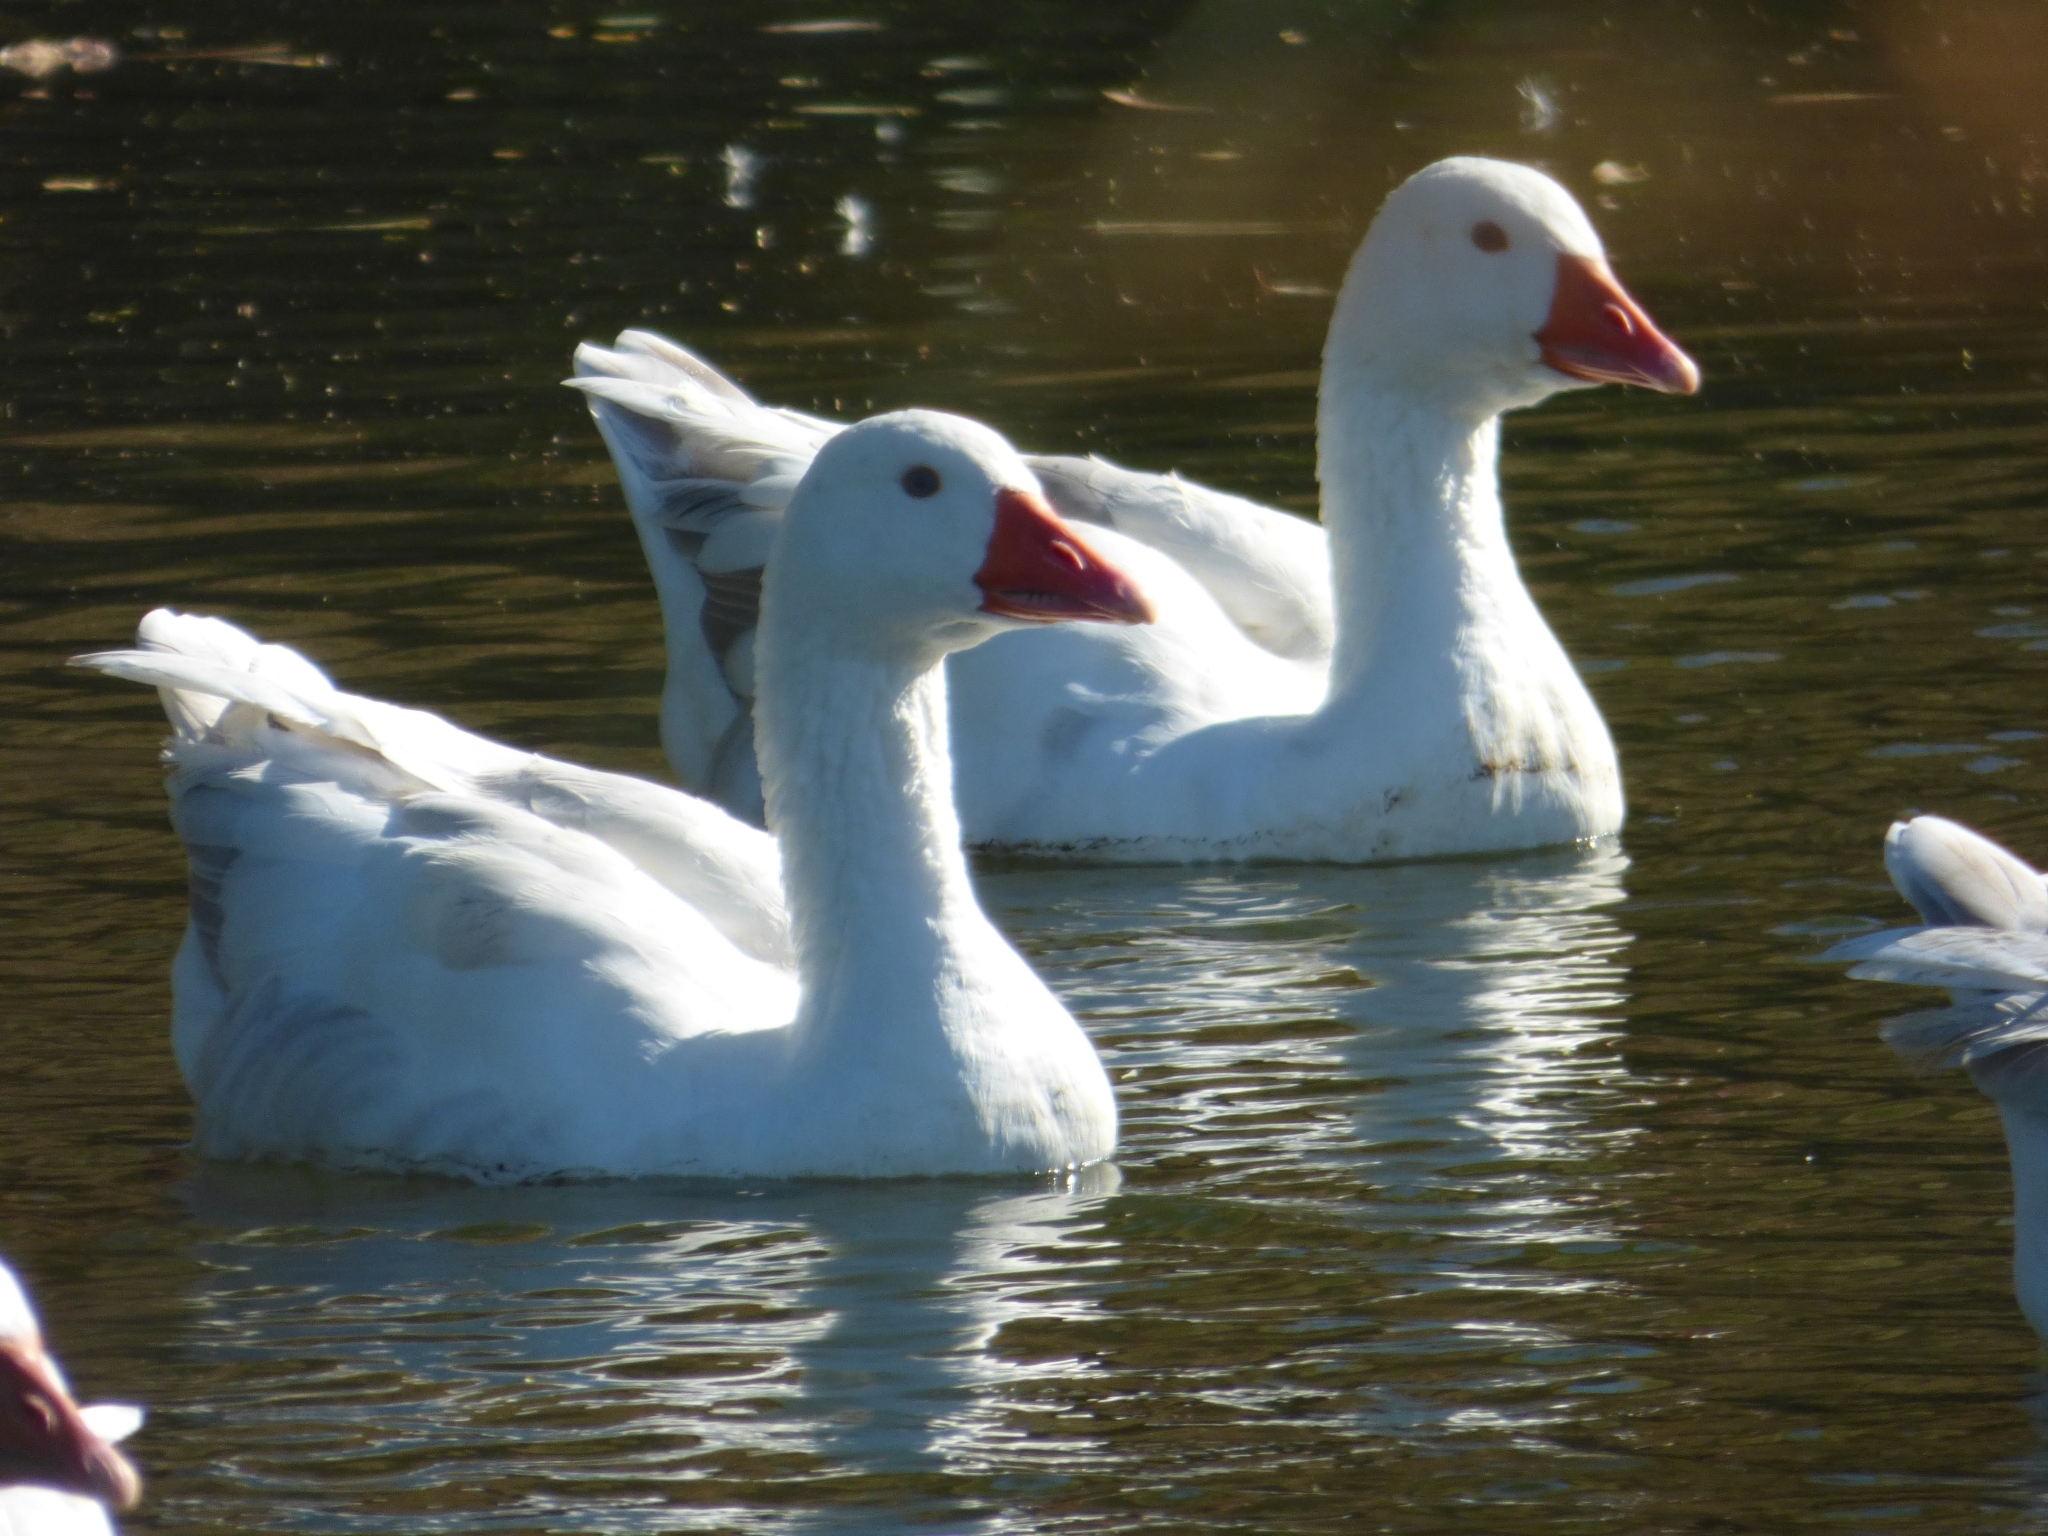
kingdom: Animalia
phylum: Chordata
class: Aves
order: Anseriformes
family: Anatidae
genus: Anser
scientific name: Anser anser
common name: Greylag goose
